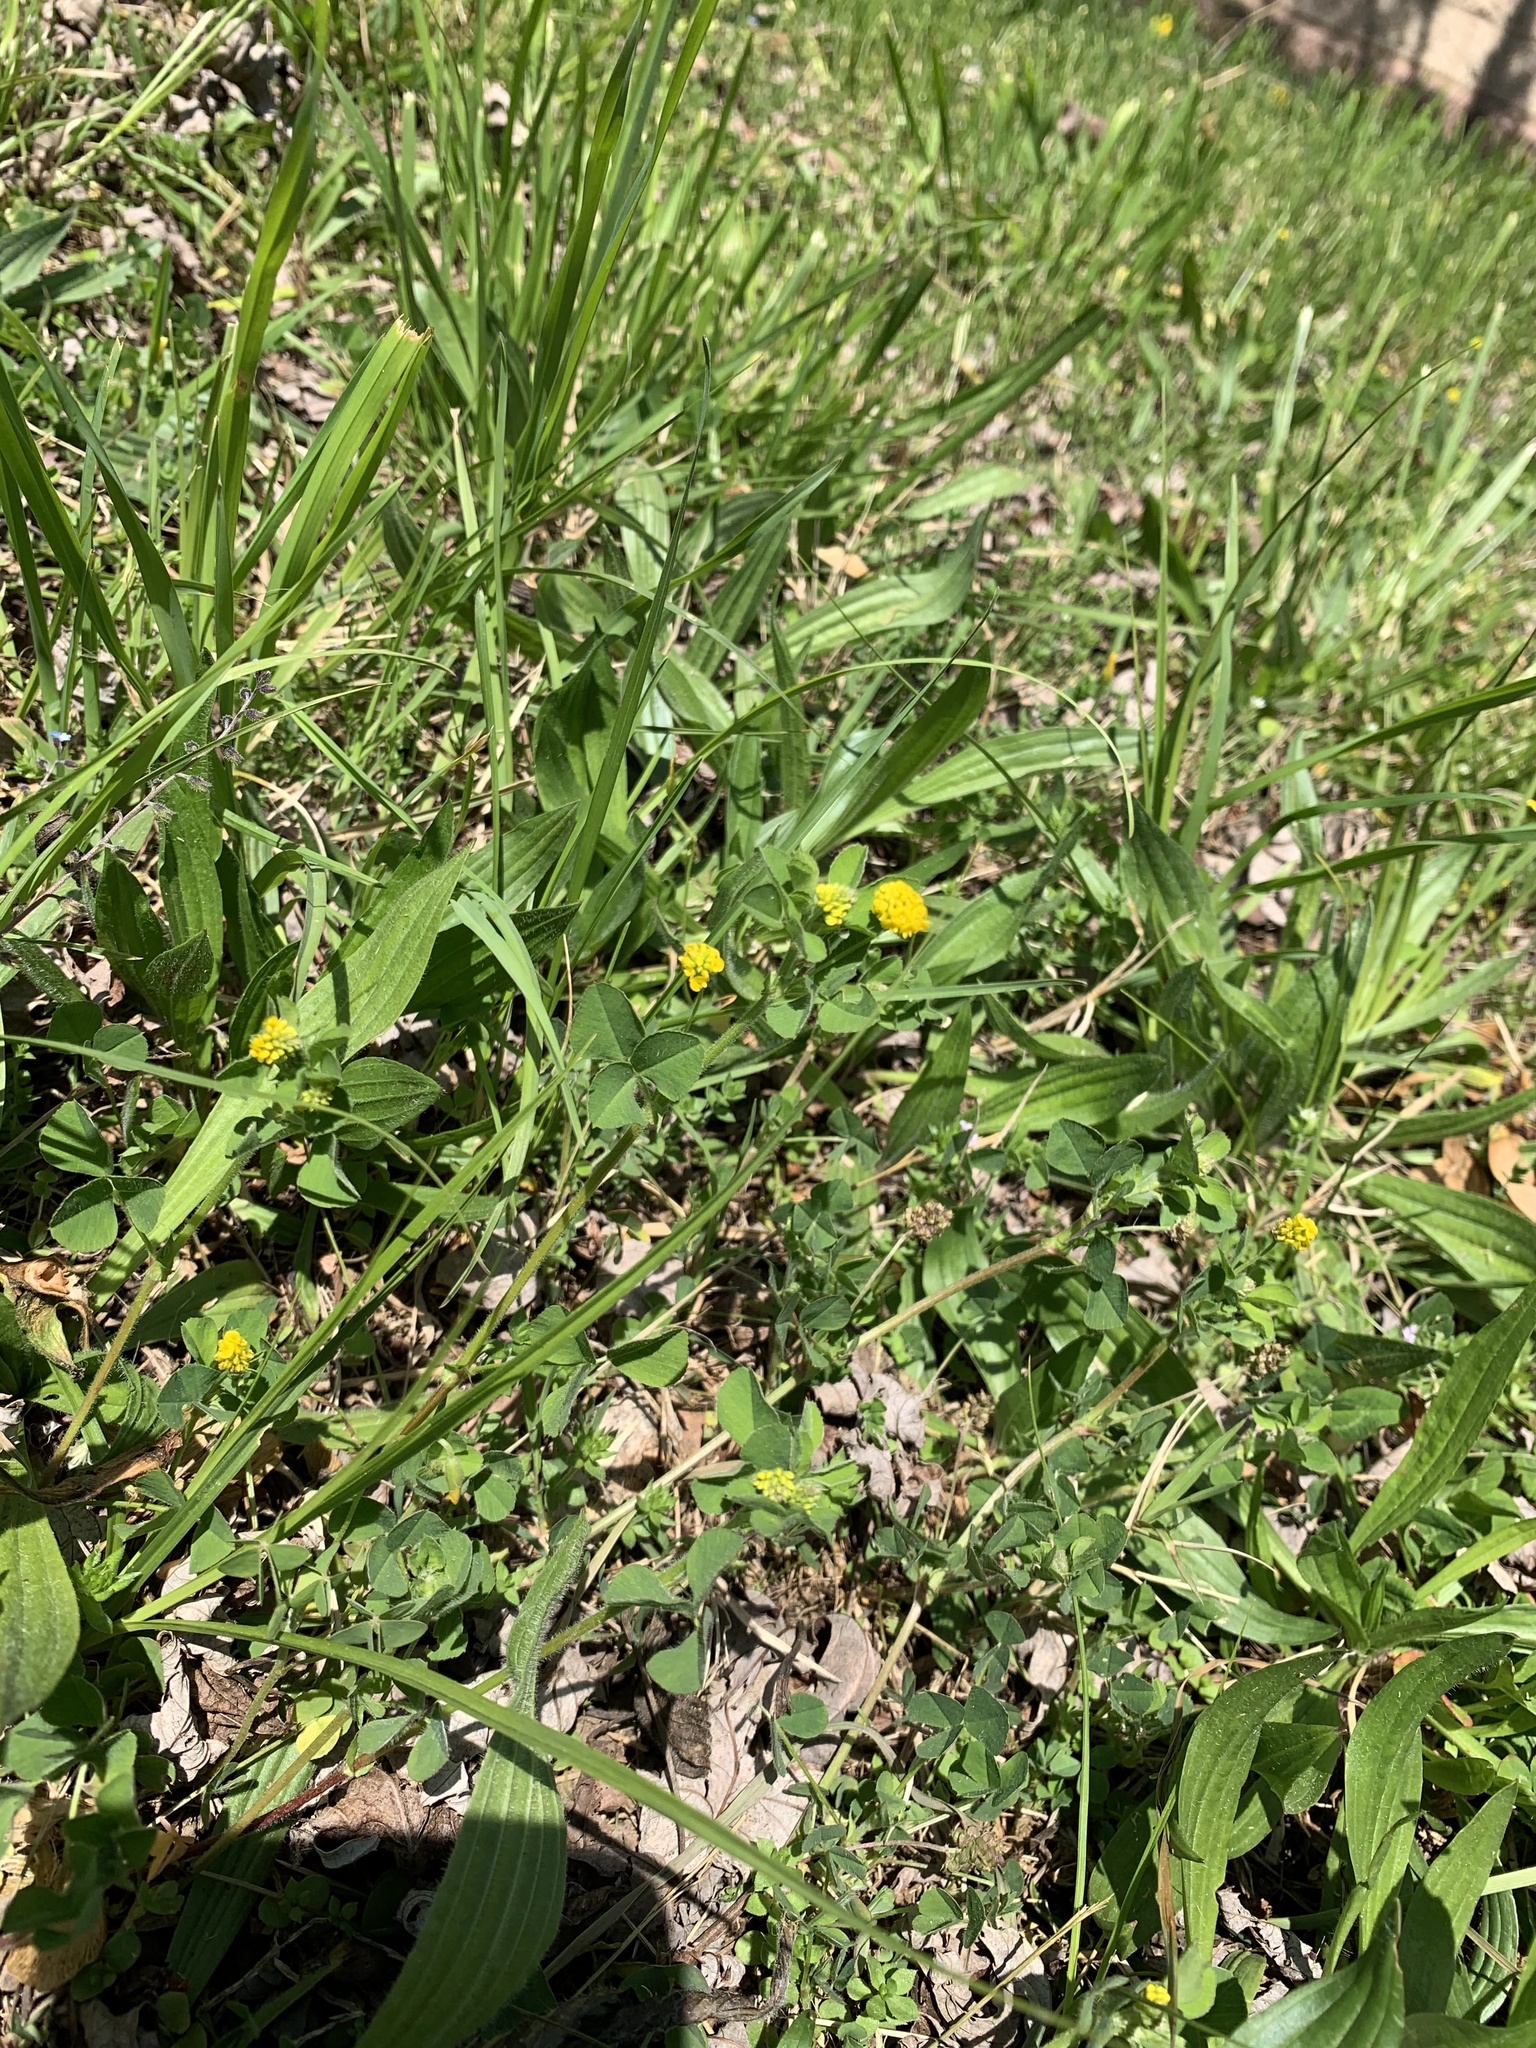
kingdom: Plantae
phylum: Tracheophyta
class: Magnoliopsida
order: Fabales
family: Fabaceae
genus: Medicago
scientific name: Medicago lupulina
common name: Black medick
